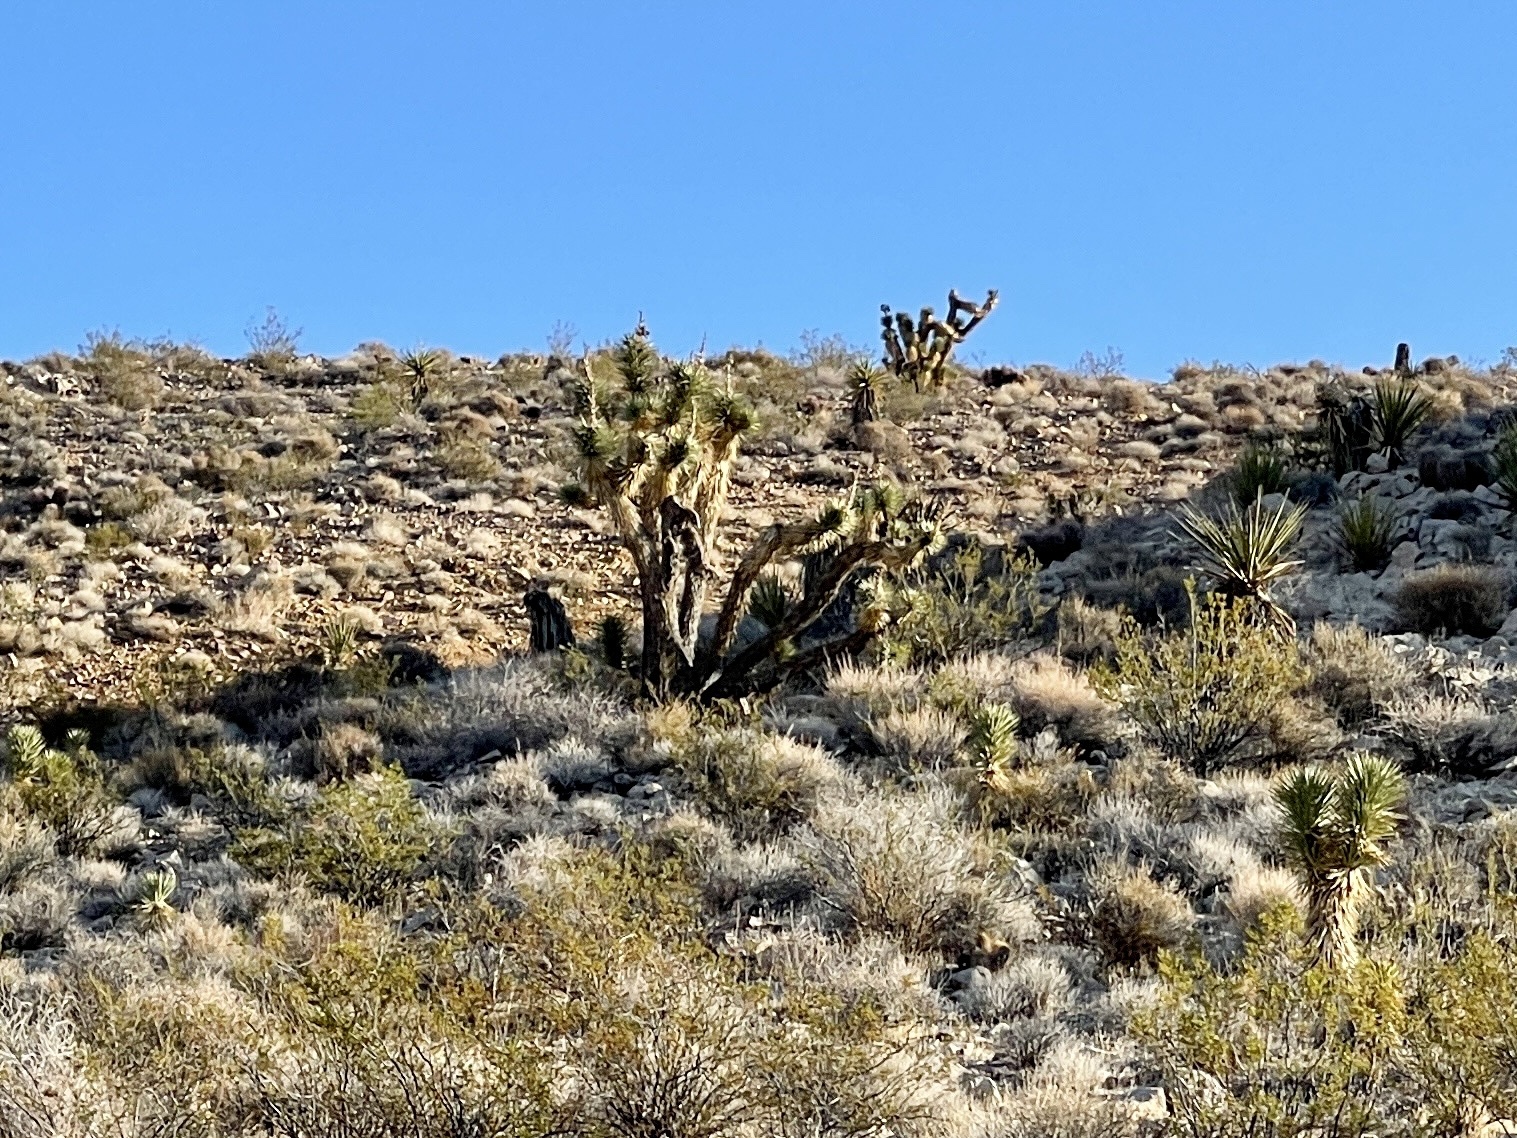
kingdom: Plantae
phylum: Tracheophyta
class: Liliopsida
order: Asparagales
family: Asparagaceae
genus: Yucca
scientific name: Yucca brevifolia
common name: Joshua tree
